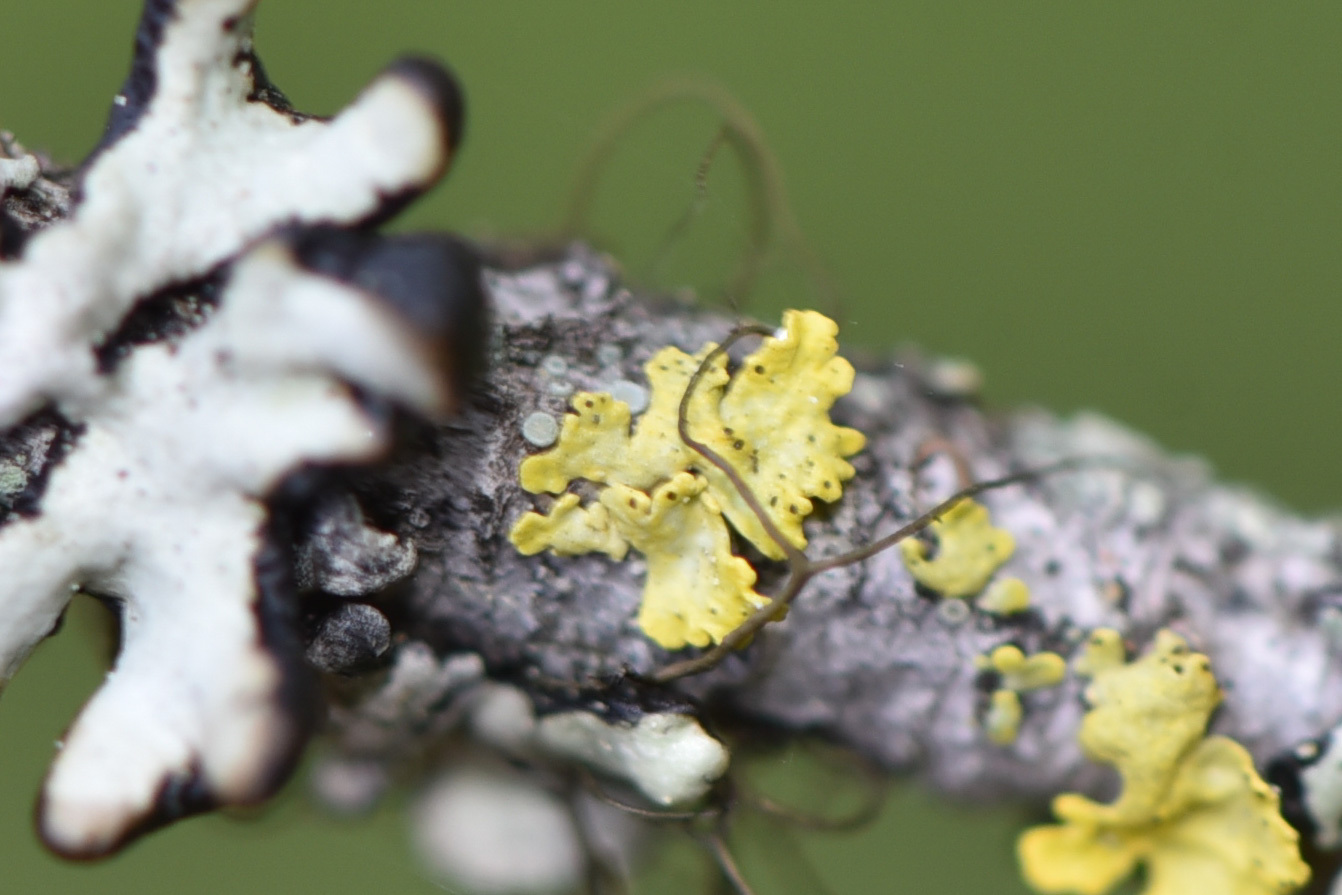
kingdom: Fungi
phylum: Ascomycota
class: Lecanoromycetes
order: Lecanorales
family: Parmeliaceae
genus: Vulpicida
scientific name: Vulpicida pinastri
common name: Powdered sunshine lichen
